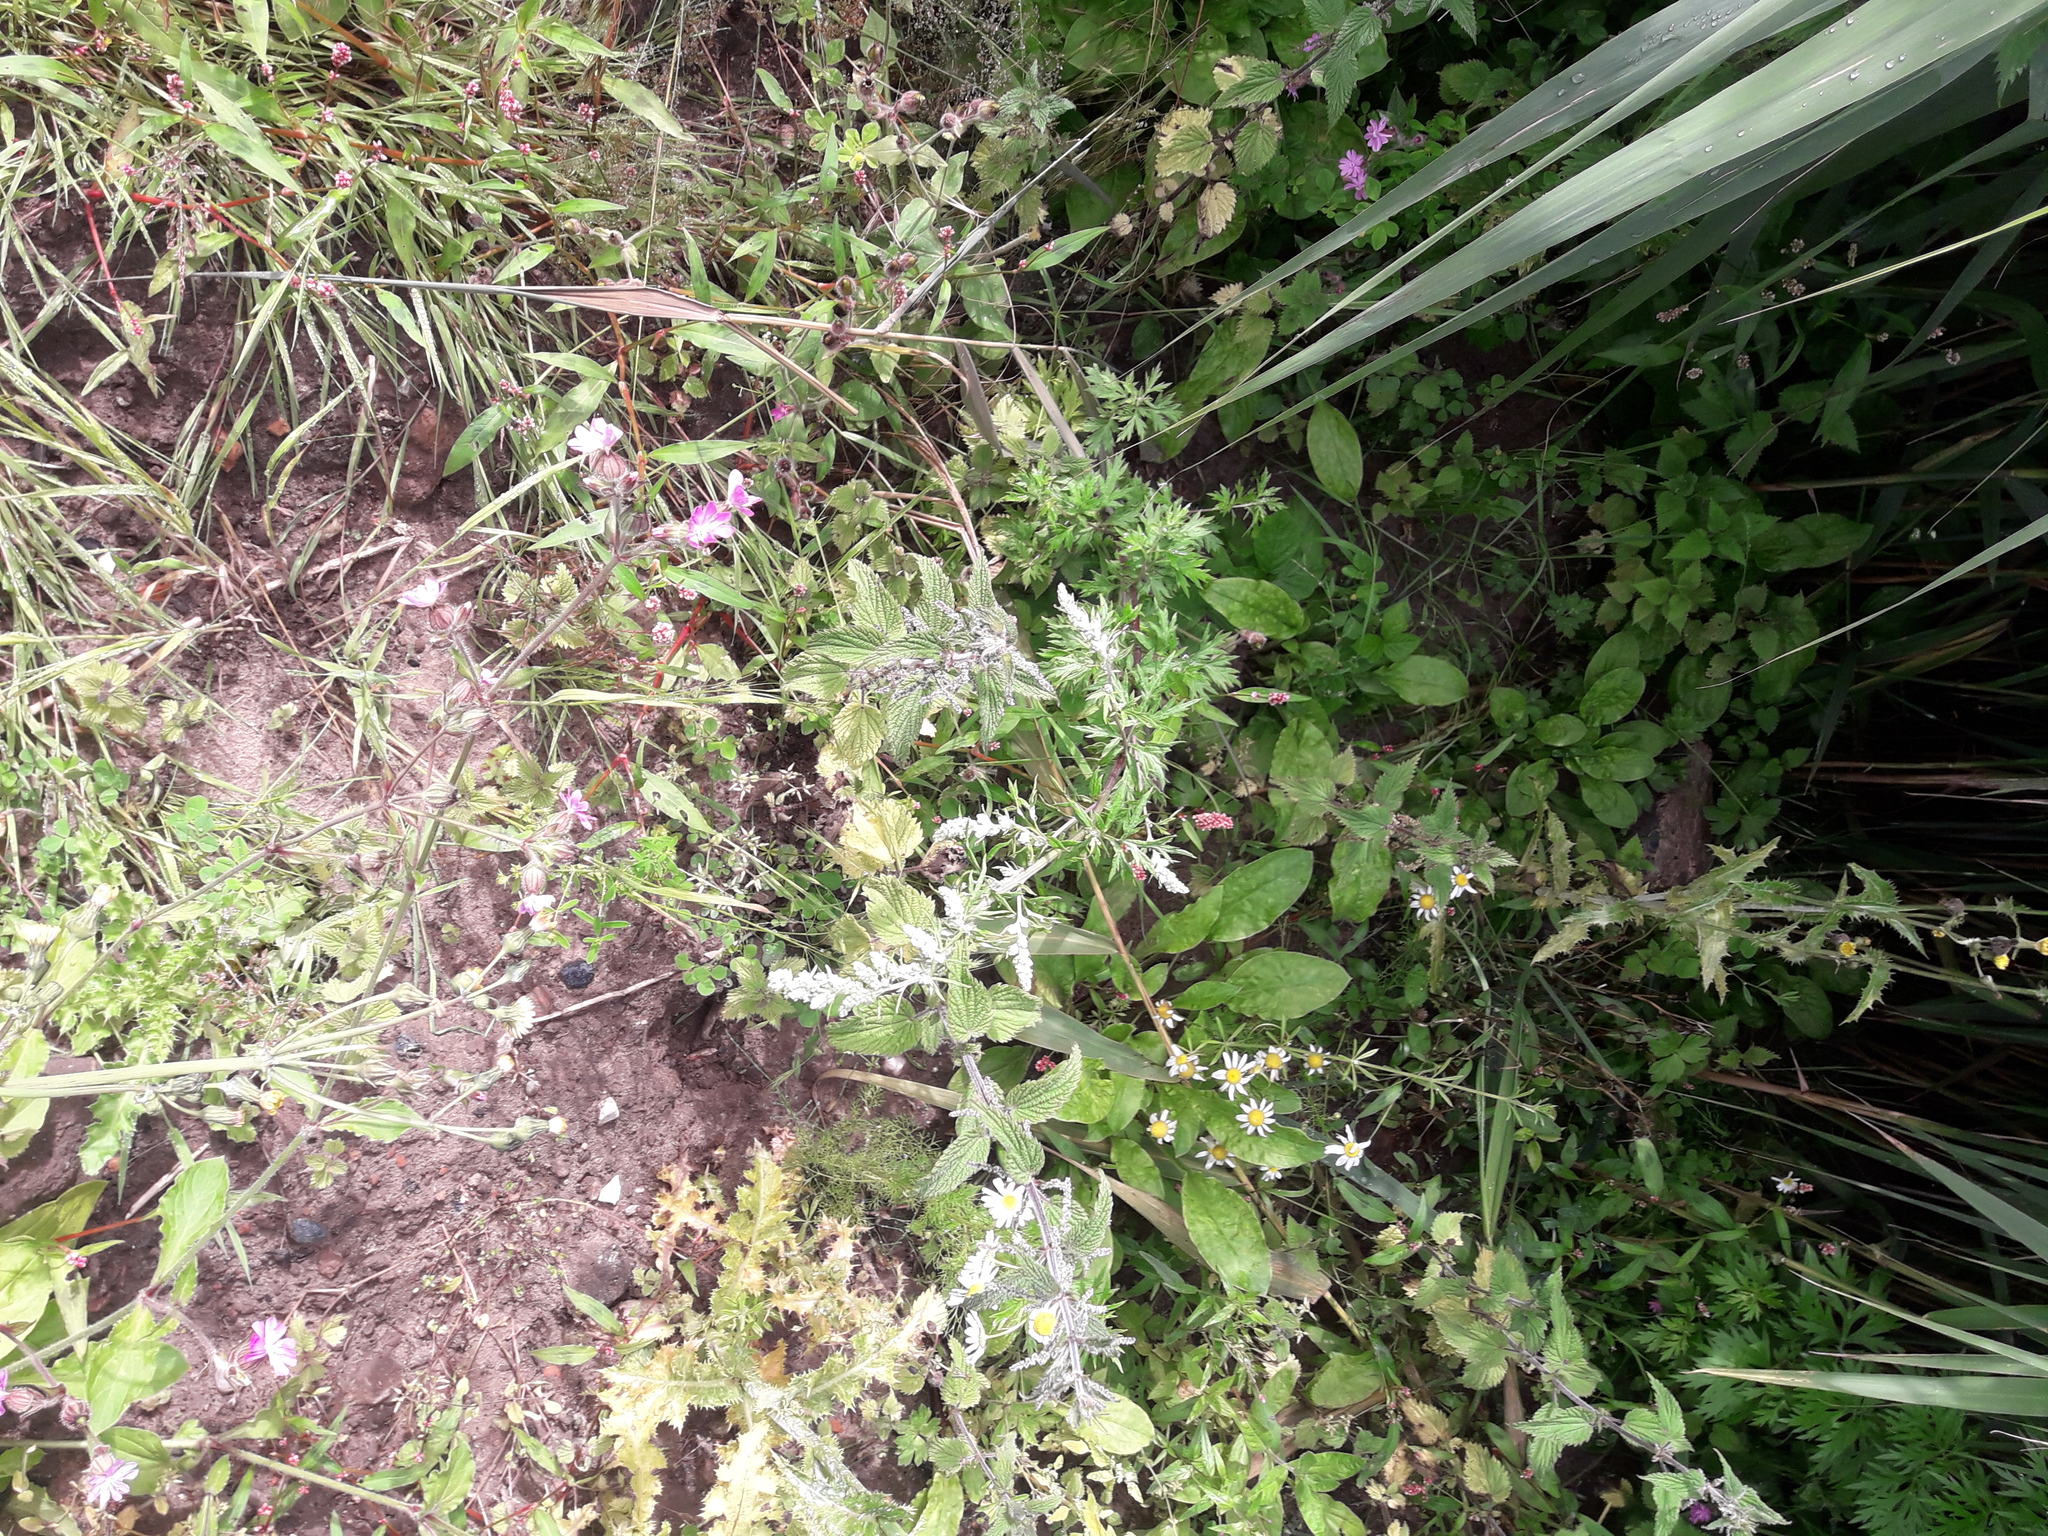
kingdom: Plantae
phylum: Tracheophyta
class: Magnoliopsida
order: Asterales
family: Asteraceae
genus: Artemisia
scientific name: Artemisia vulgaris
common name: Mugwort
